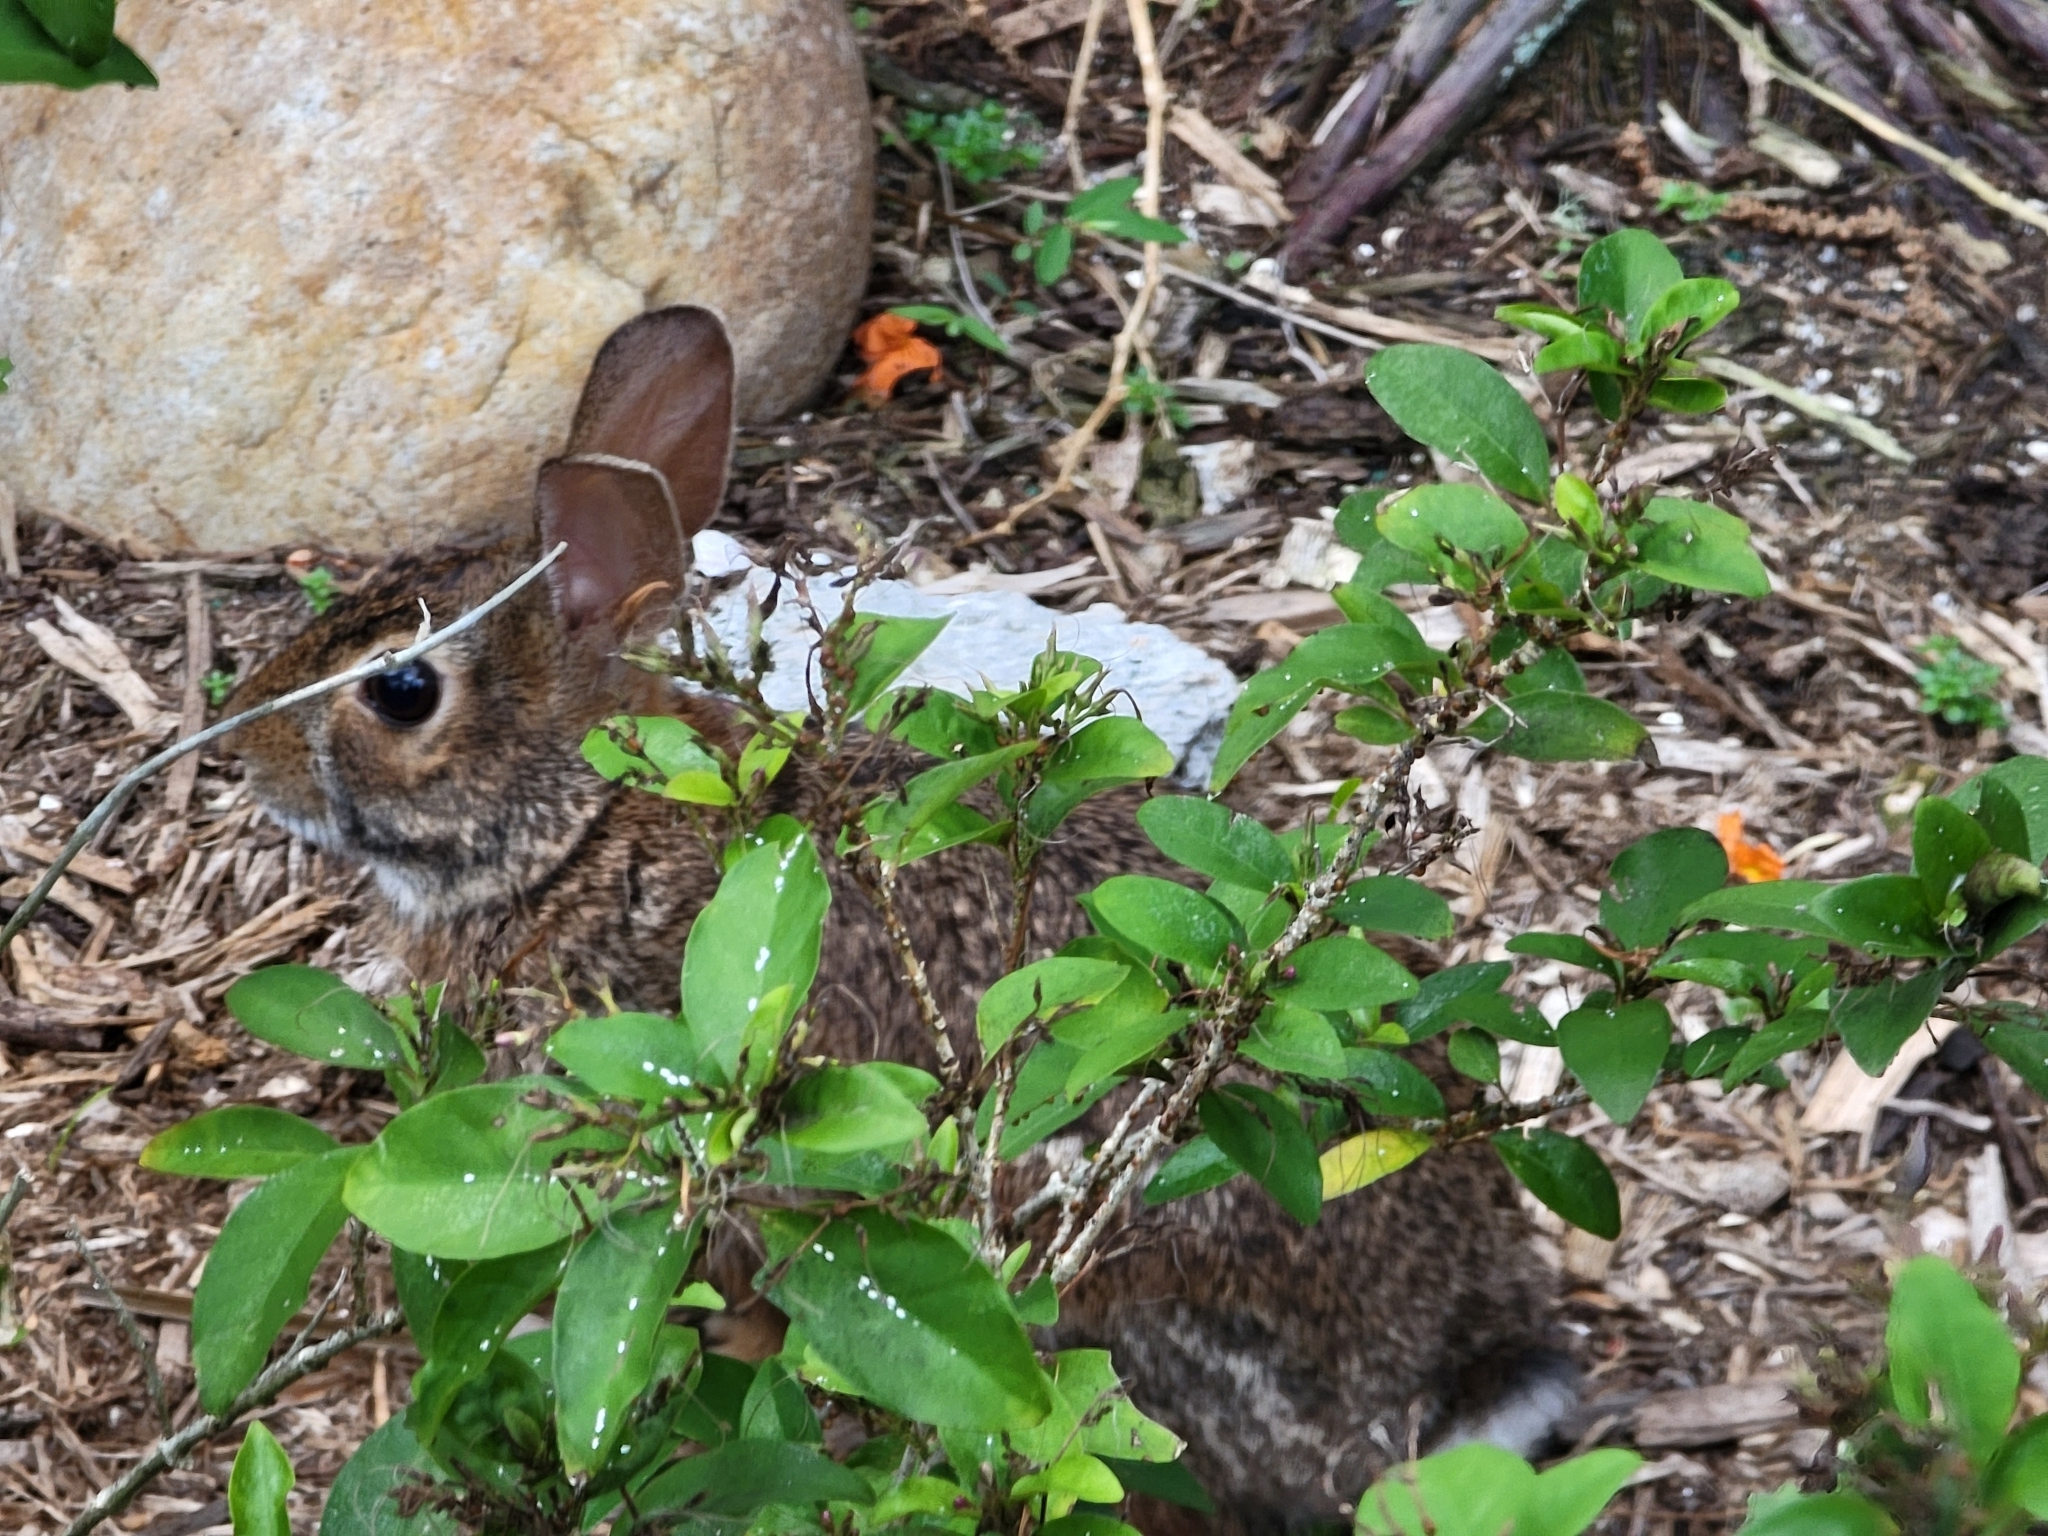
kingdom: Animalia
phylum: Chordata
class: Mammalia
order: Lagomorpha
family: Leporidae
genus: Sylvilagus
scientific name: Sylvilagus floridanus
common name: Eastern cottontail
